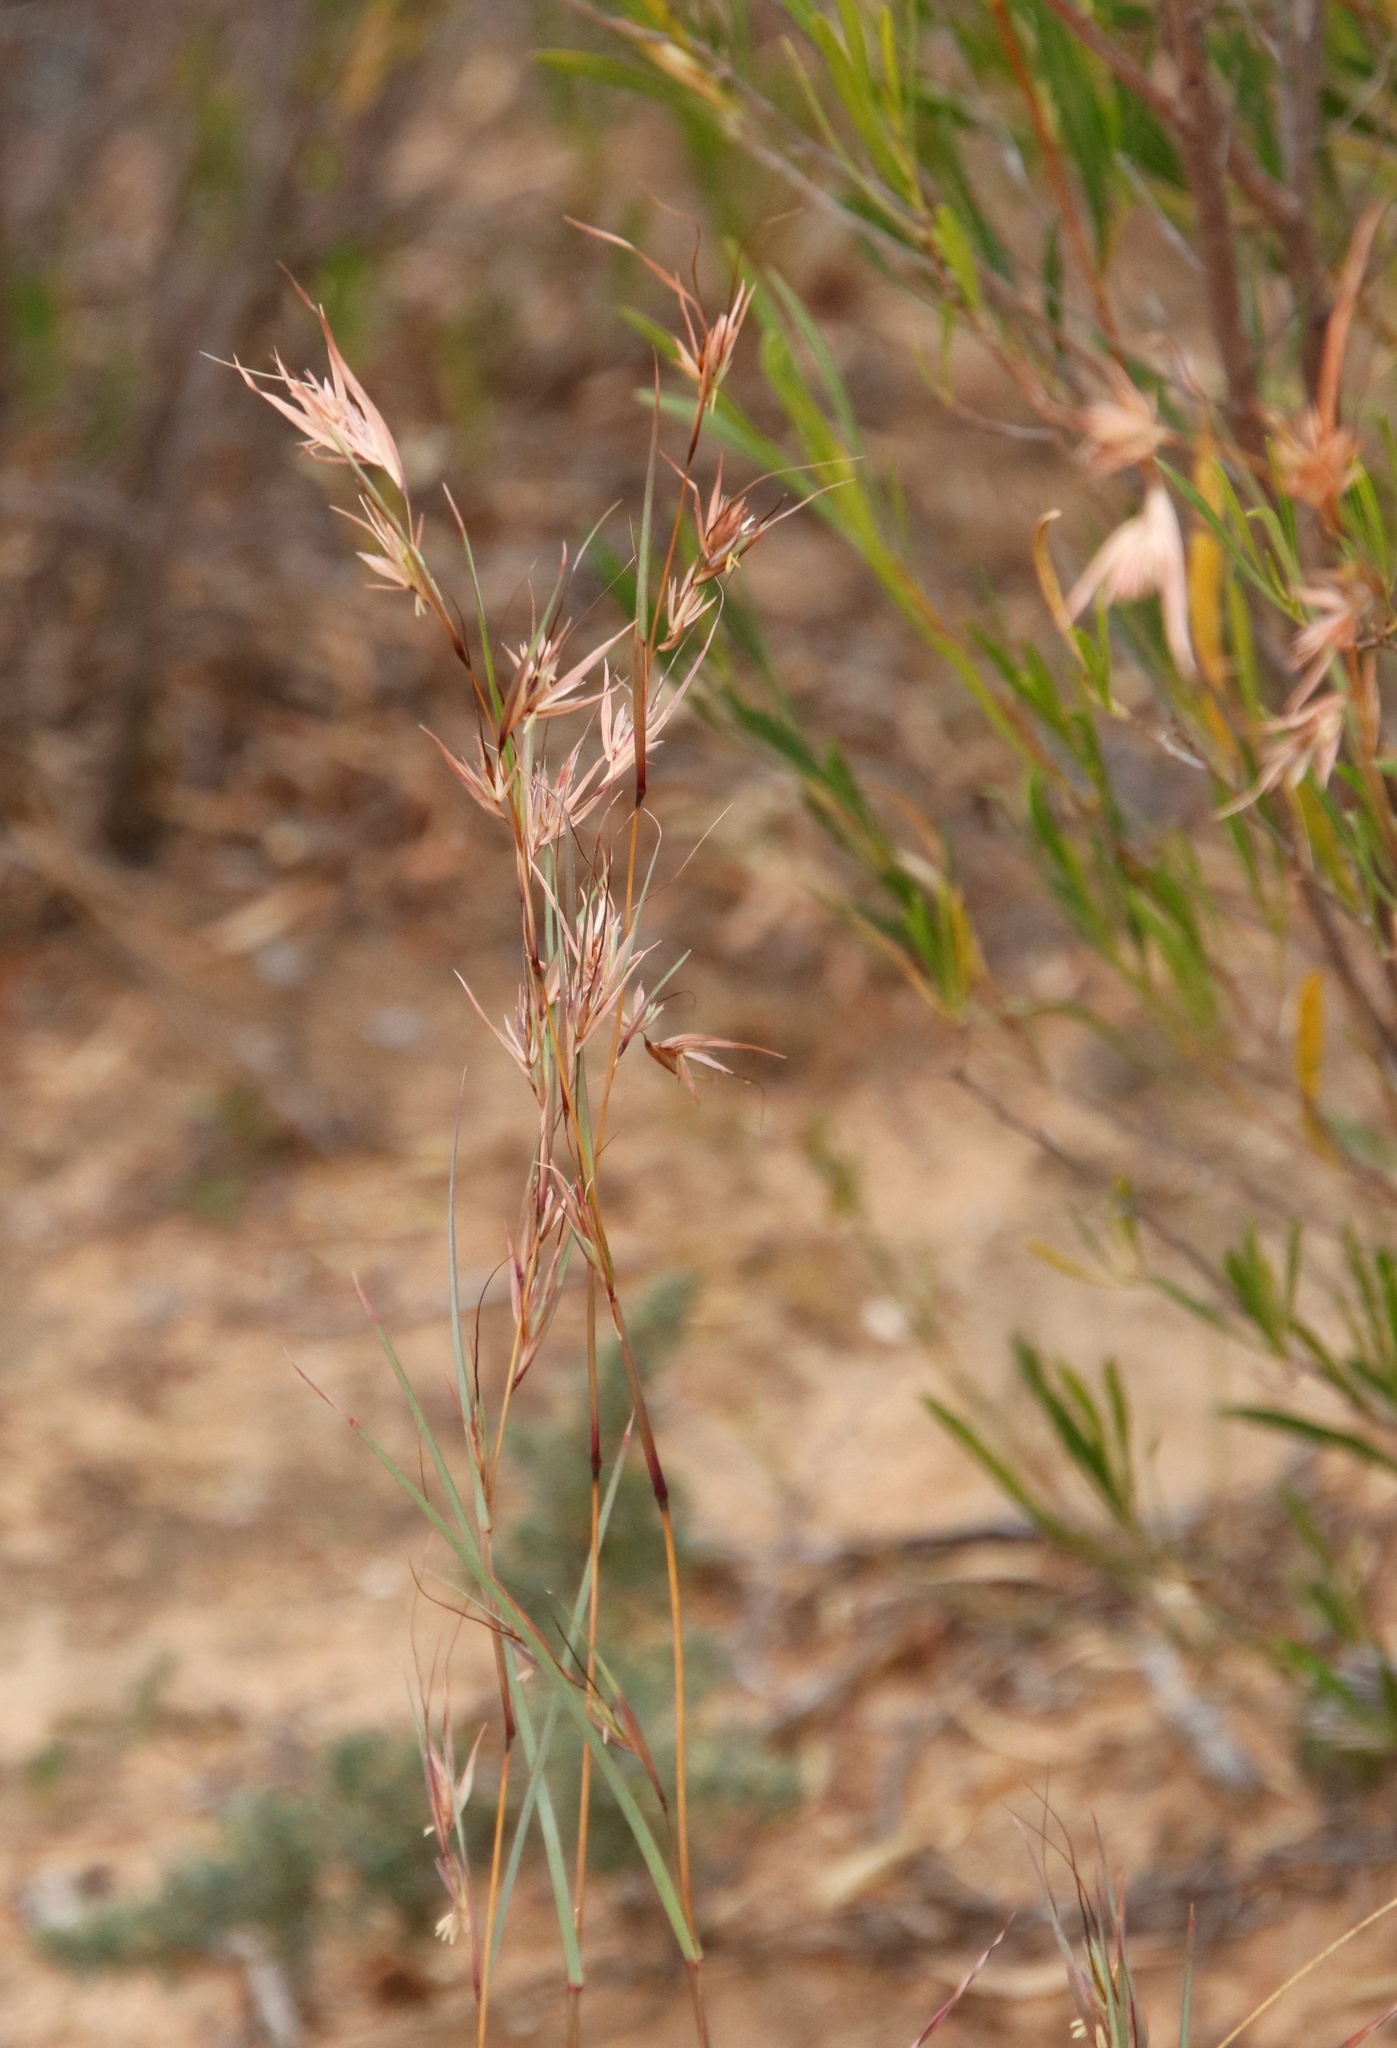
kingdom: Plantae
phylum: Tracheophyta
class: Liliopsida
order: Poales
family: Poaceae
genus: Themeda
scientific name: Themeda triandra
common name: Kangaroo grass
